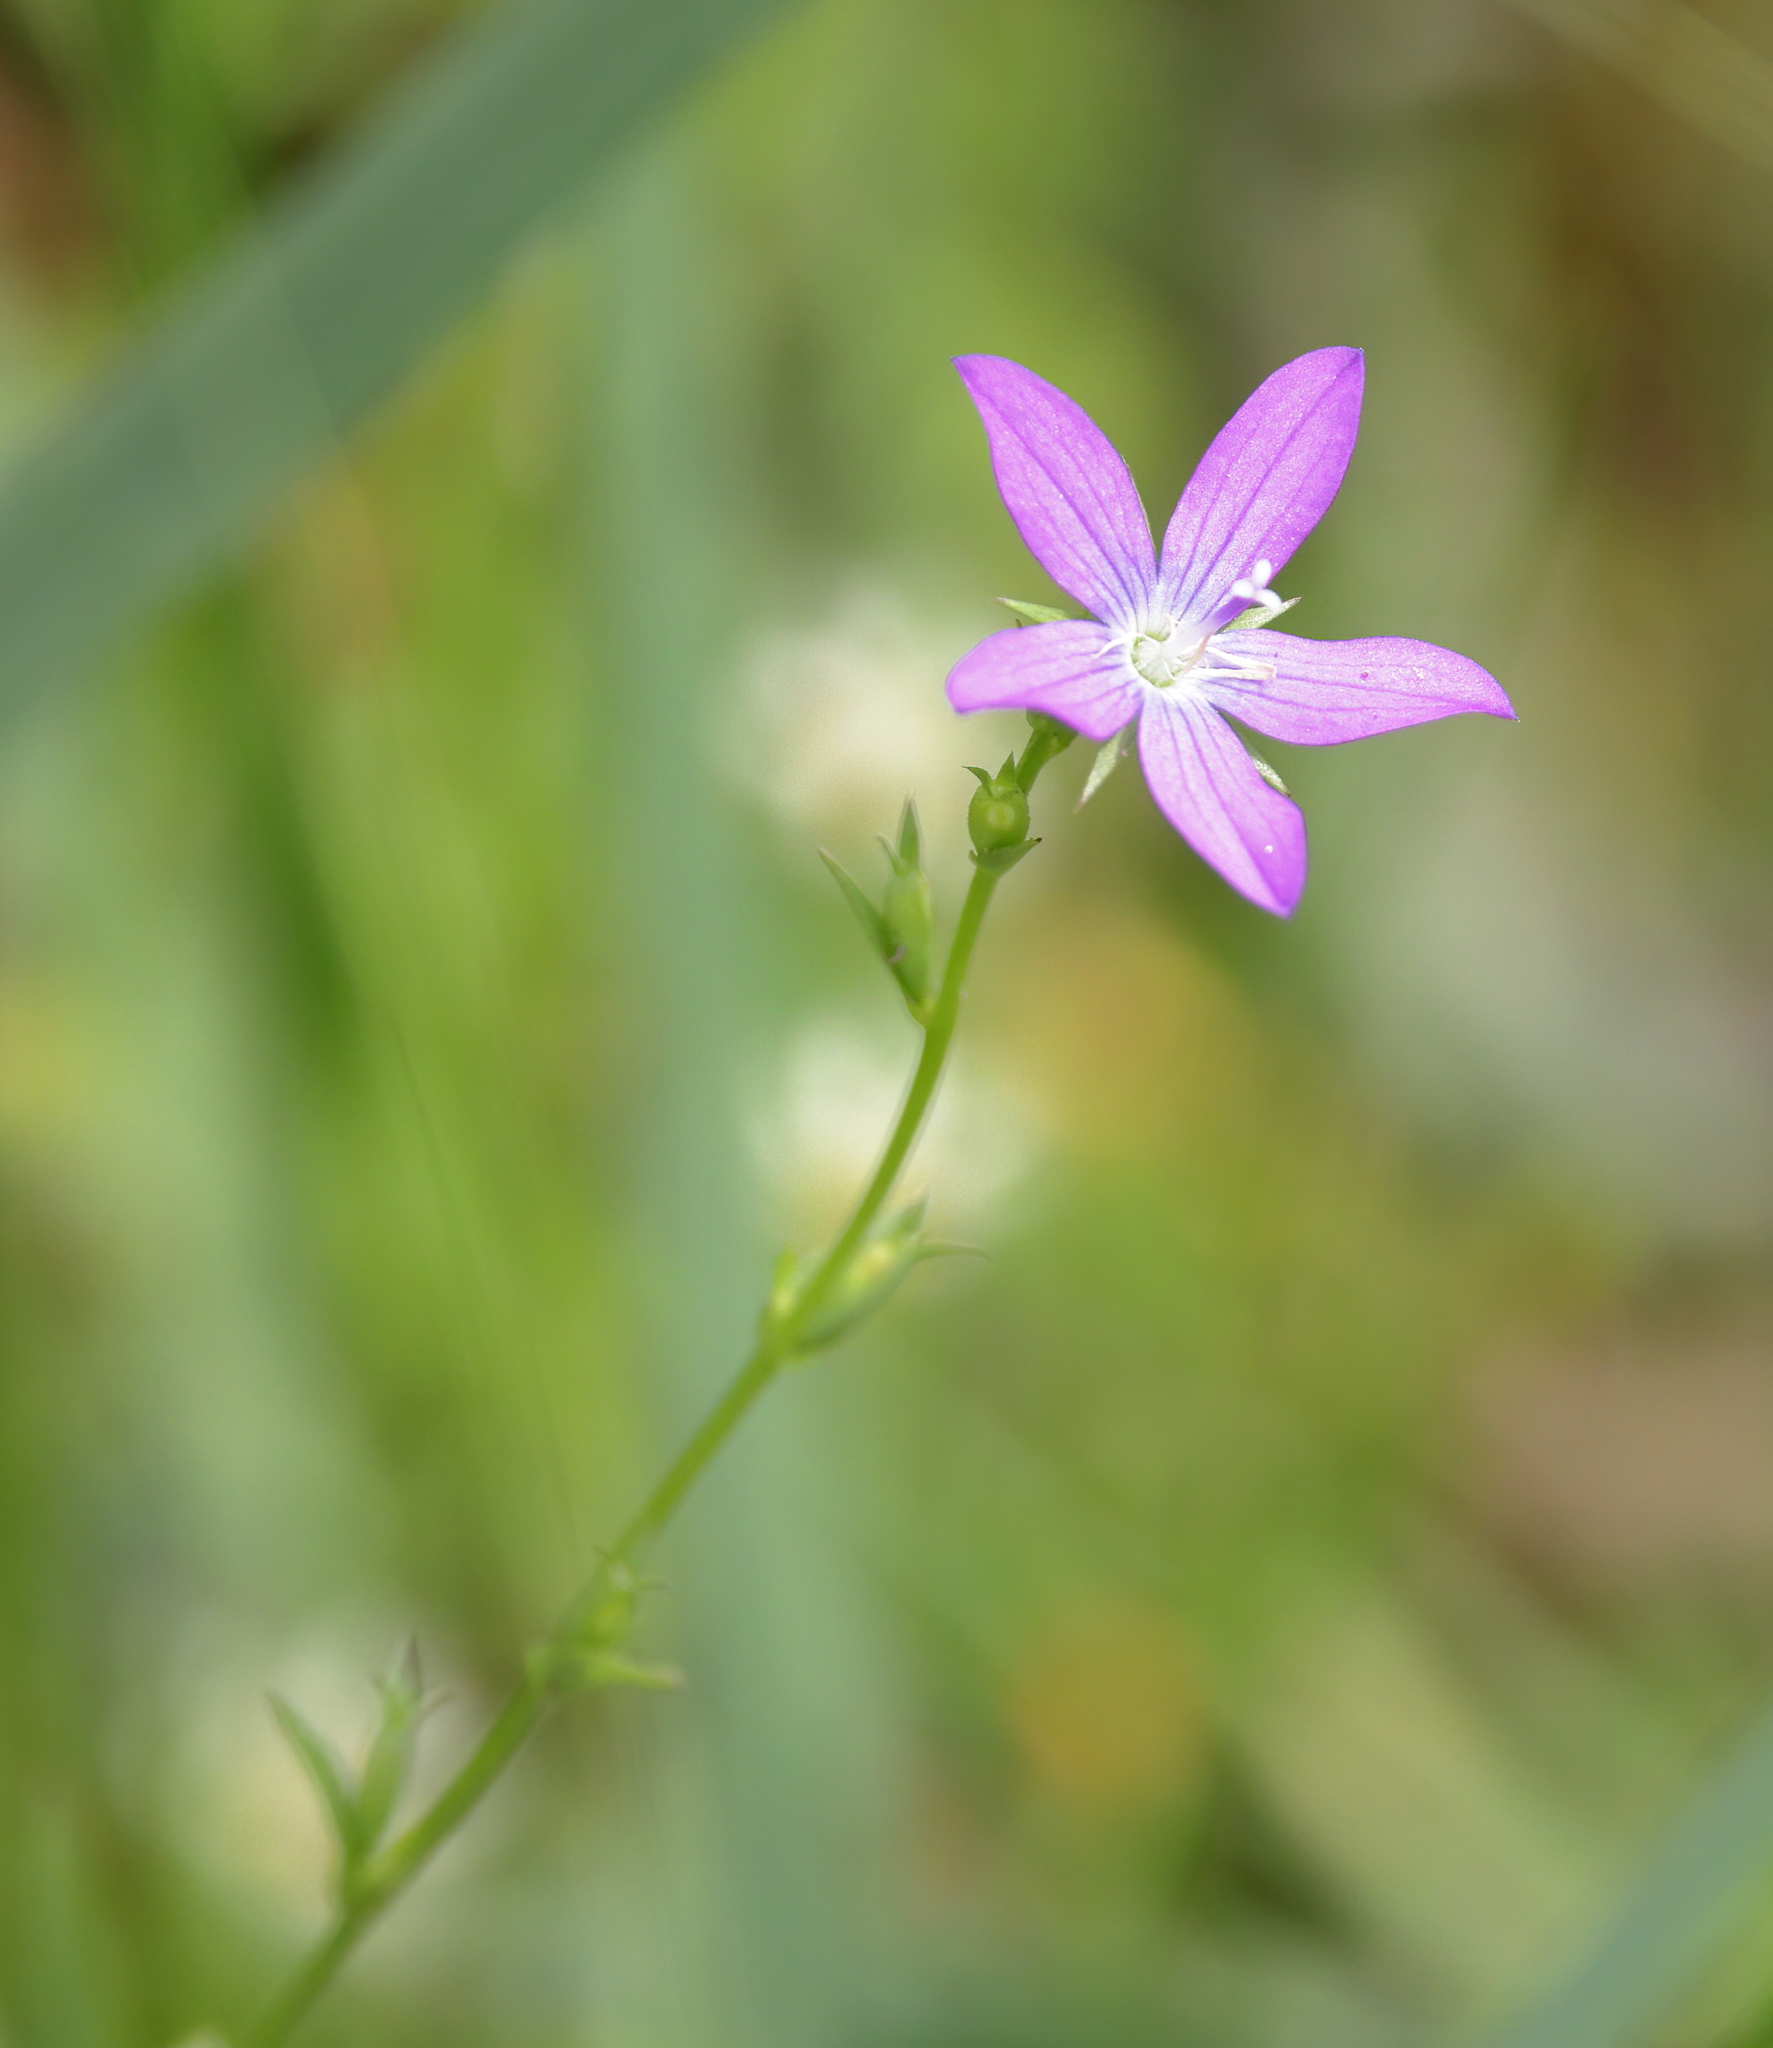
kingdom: Plantae
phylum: Tracheophyta
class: Magnoliopsida
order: Asterales
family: Campanulaceae
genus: Triodanis
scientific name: Triodanis biflora
